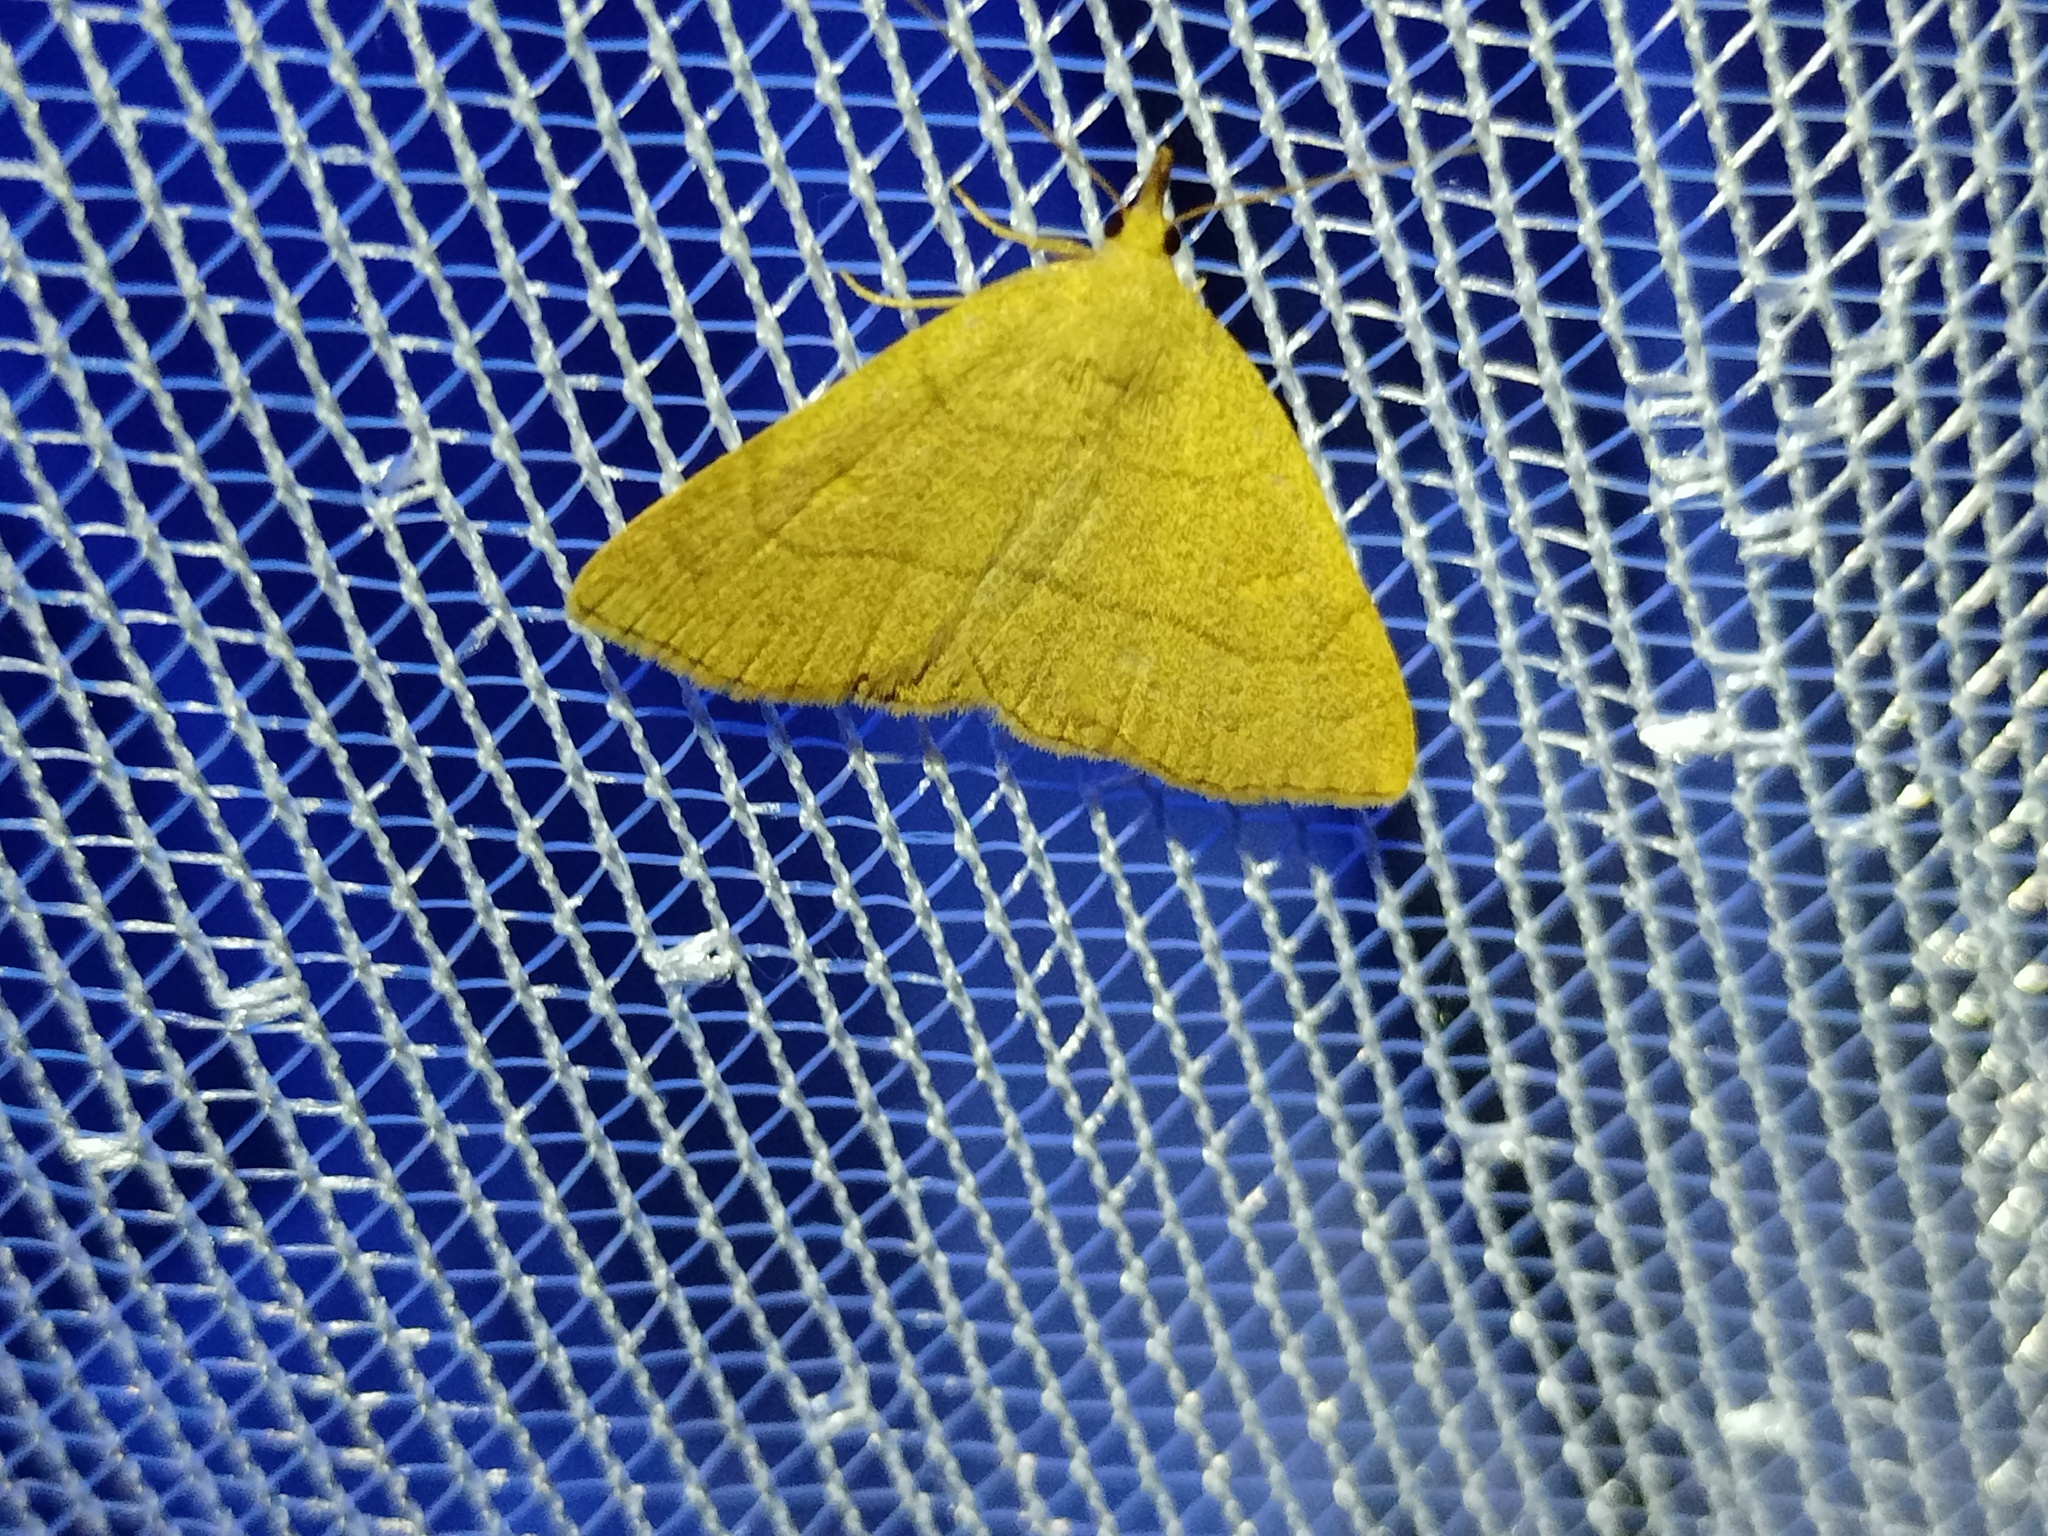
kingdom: Animalia
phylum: Arthropoda
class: Insecta
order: Lepidoptera
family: Erebidae
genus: Paracolax
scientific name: Paracolax tristalis
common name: Clay fan-foot
